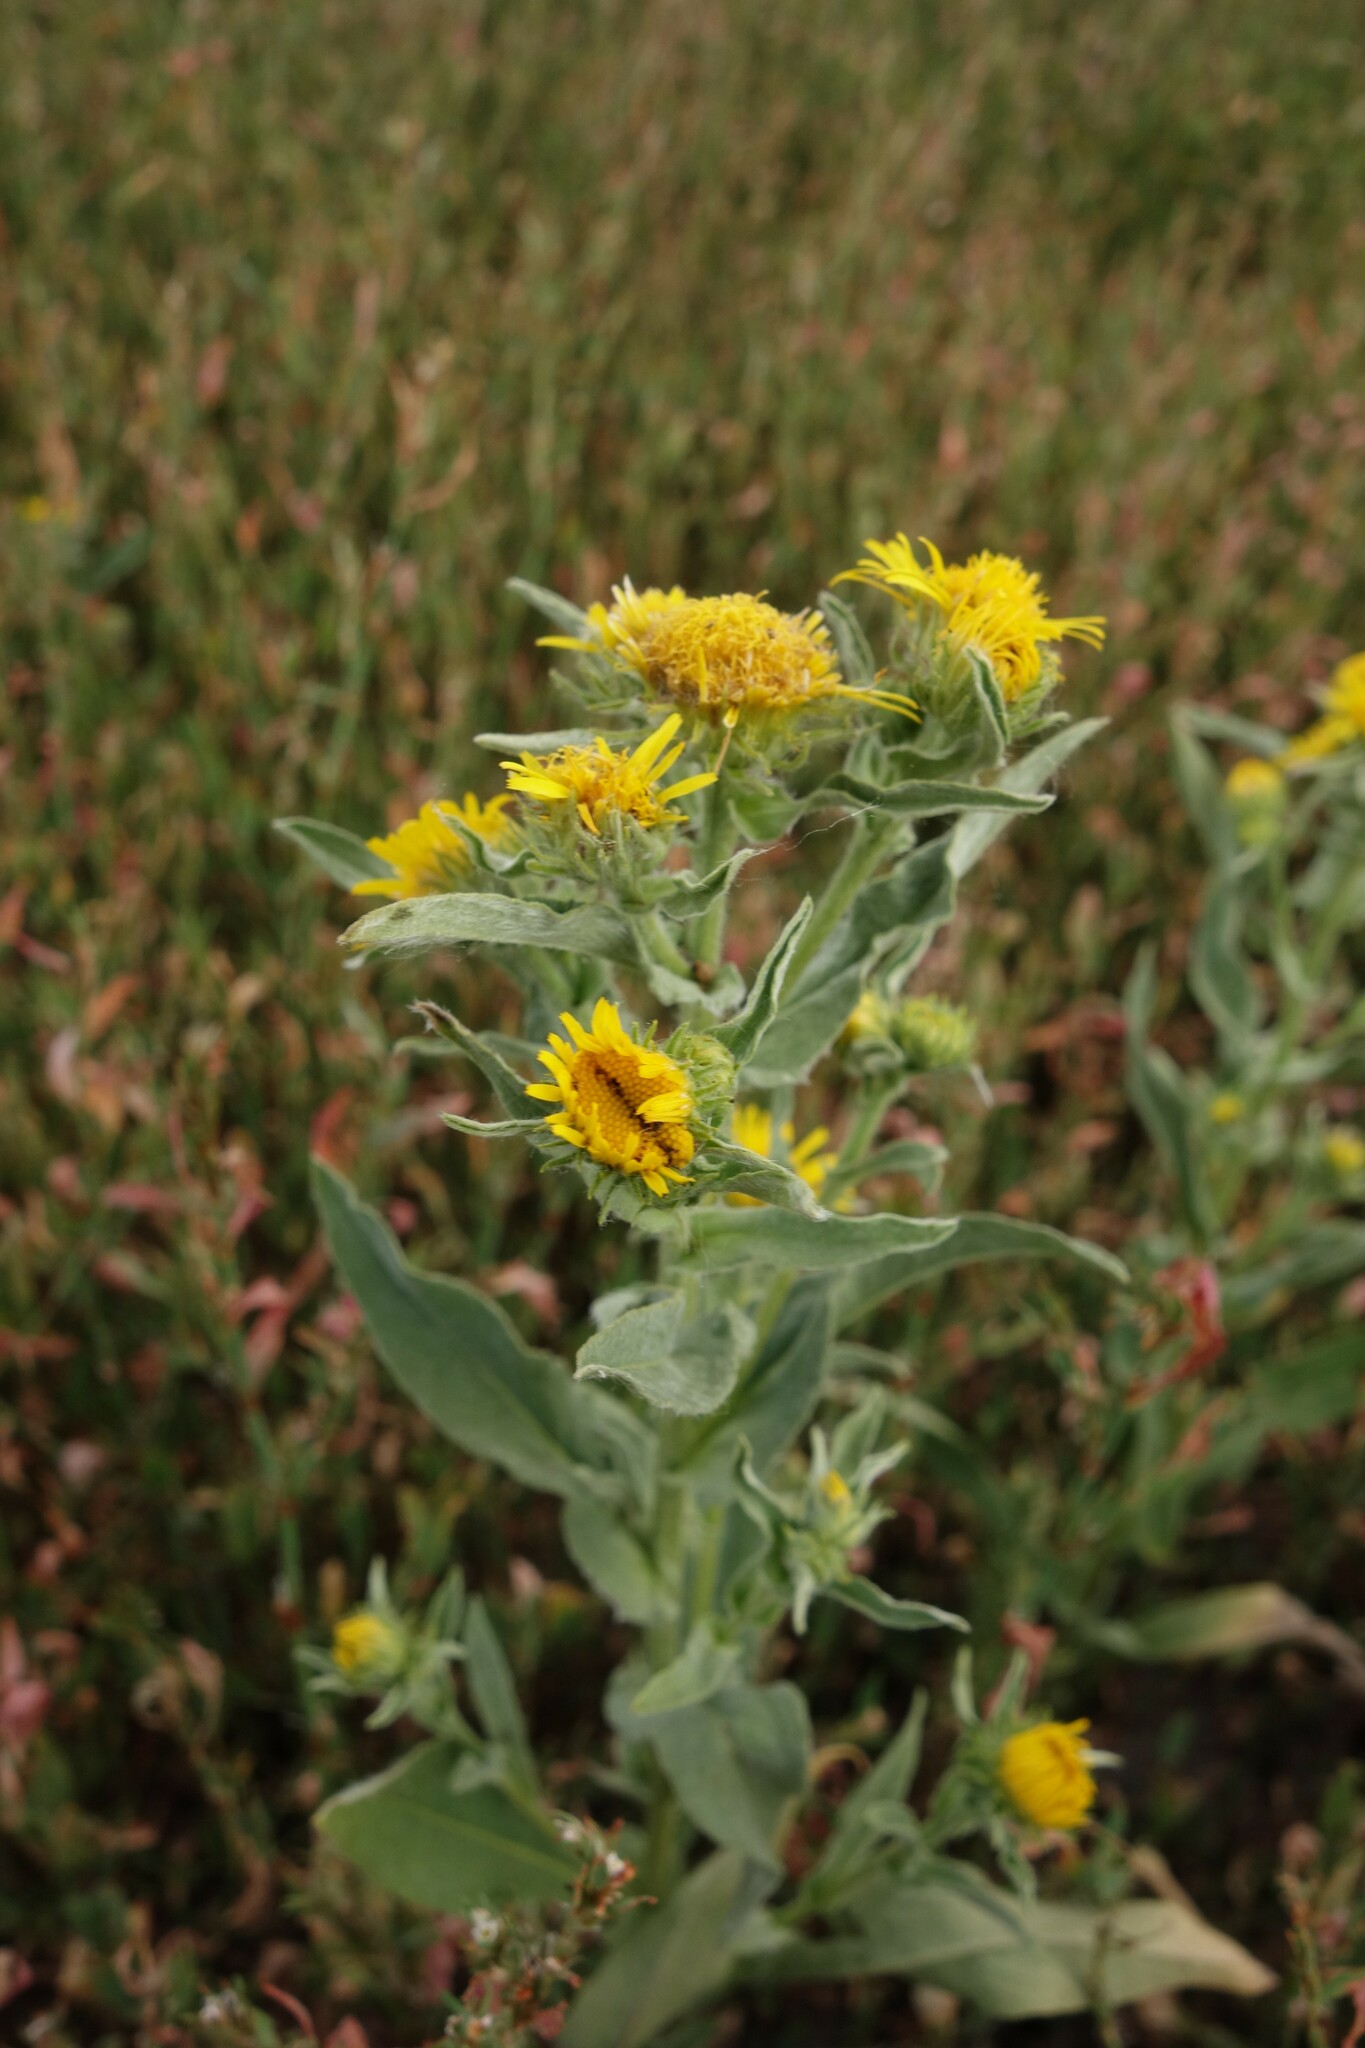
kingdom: Plantae
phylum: Tracheophyta
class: Magnoliopsida
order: Asterales
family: Asteraceae
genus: Pentanema
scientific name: Pentanema britannicum
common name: British elecampane
